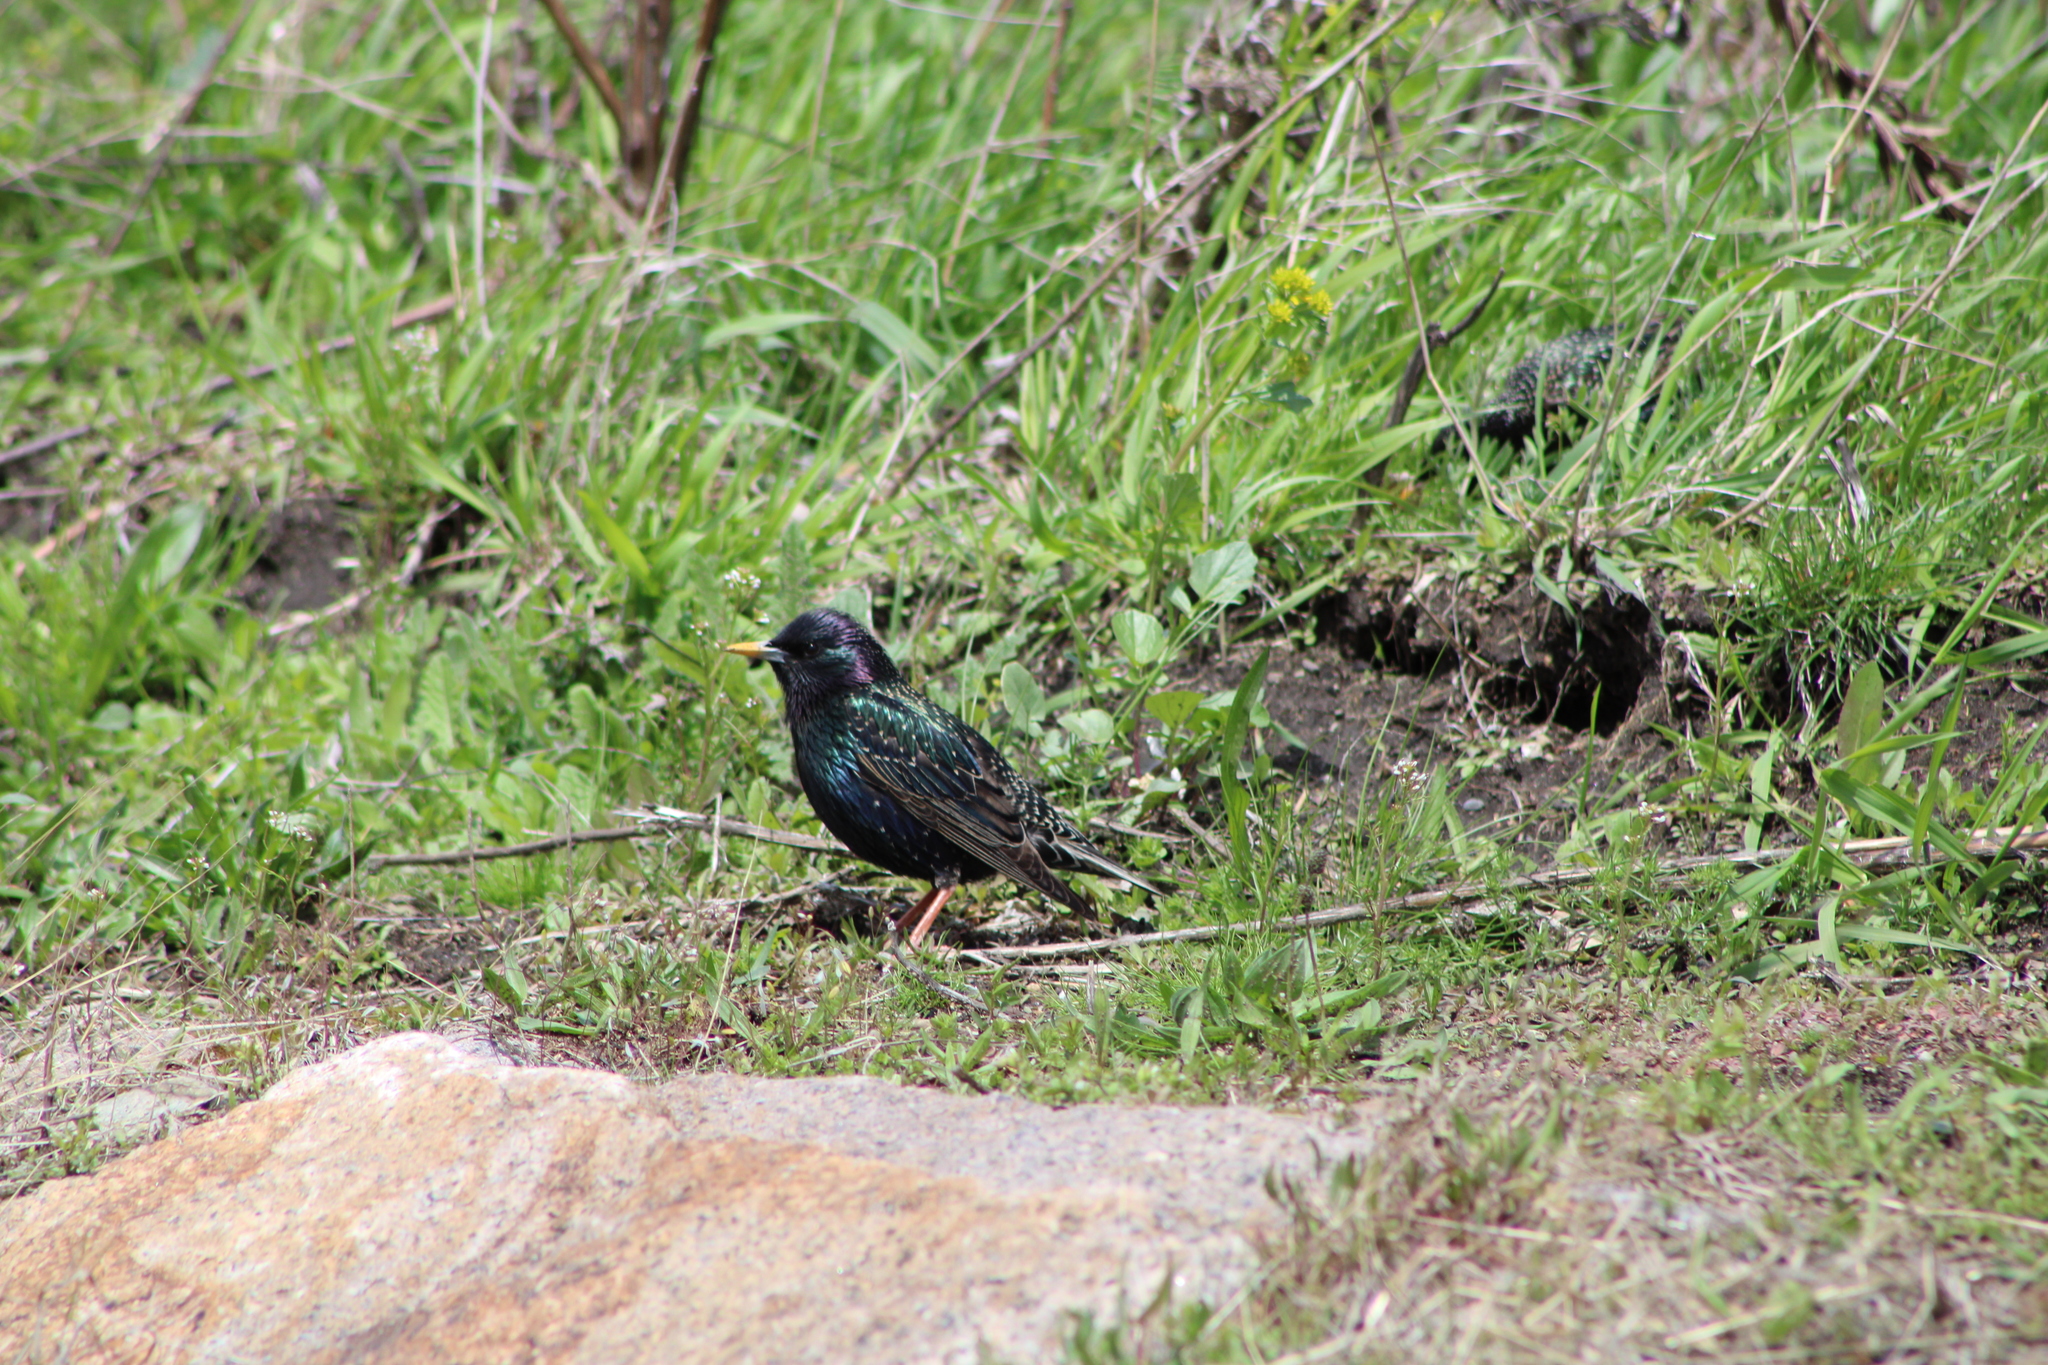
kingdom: Animalia
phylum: Chordata
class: Aves
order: Passeriformes
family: Sturnidae
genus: Sturnus
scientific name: Sturnus vulgaris
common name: Common starling
